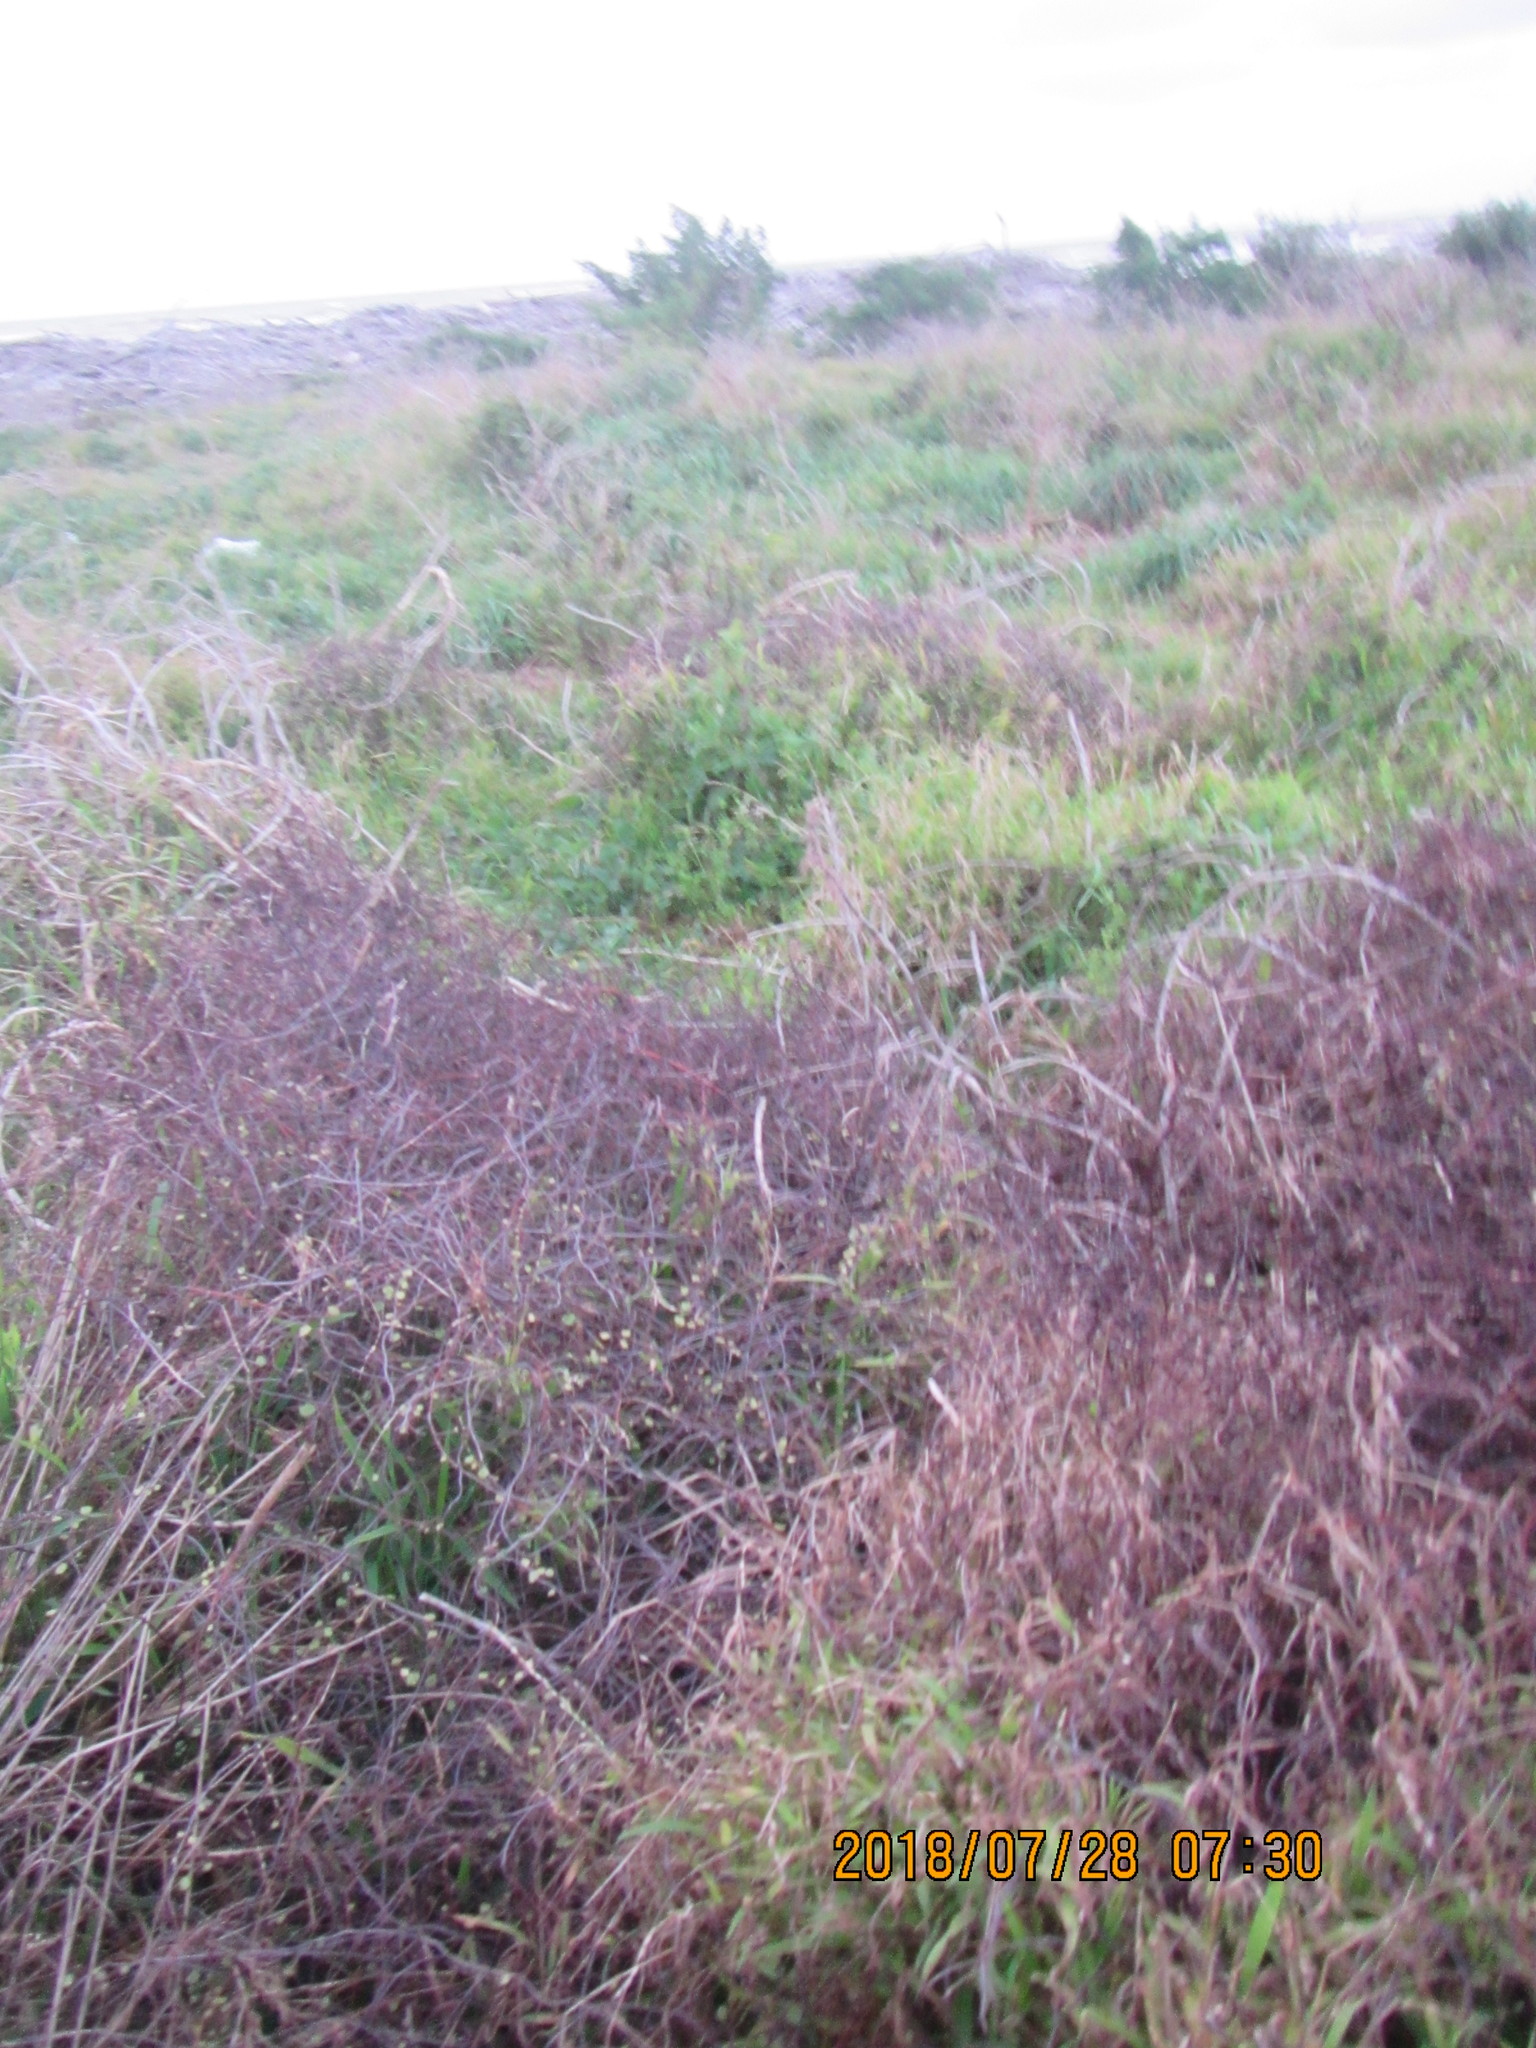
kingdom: Plantae
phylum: Tracheophyta
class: Magnoliopsida
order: Caryophyllales
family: Polygonaceae
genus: Muehlenbeckia
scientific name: Muehlenbeckia complexa
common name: Wireplant
